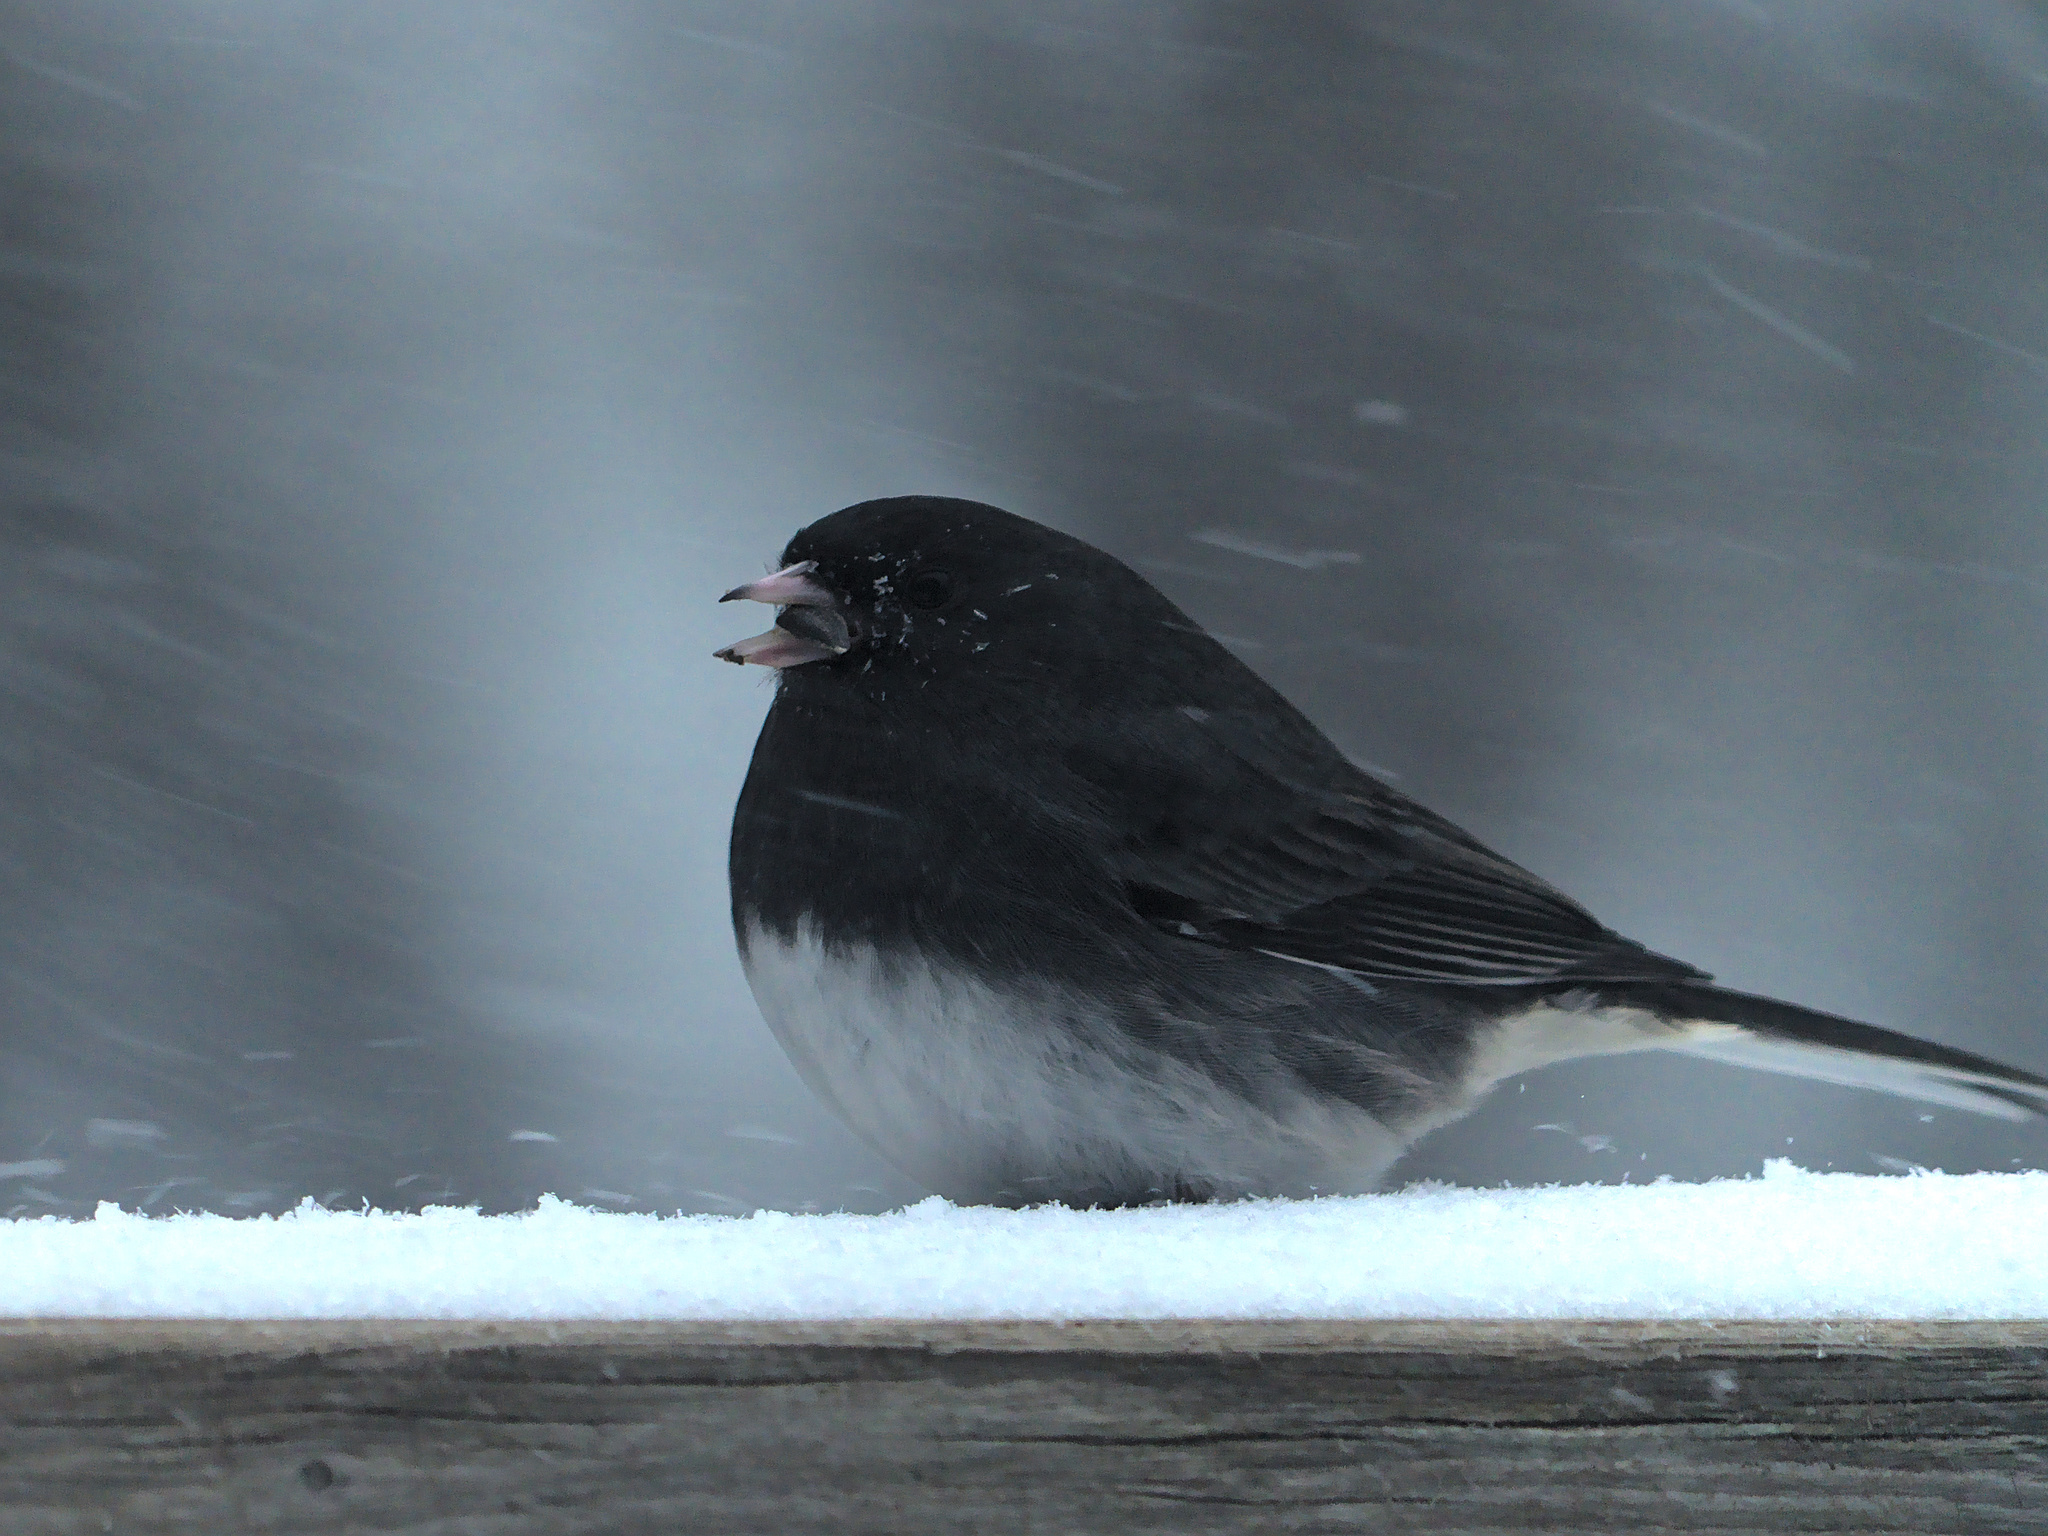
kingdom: Animalia
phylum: Chordata
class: Aves
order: Passeriformes
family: Passerellidae
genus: Junco
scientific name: Junco hyemalis
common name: Dark-eyed junco
